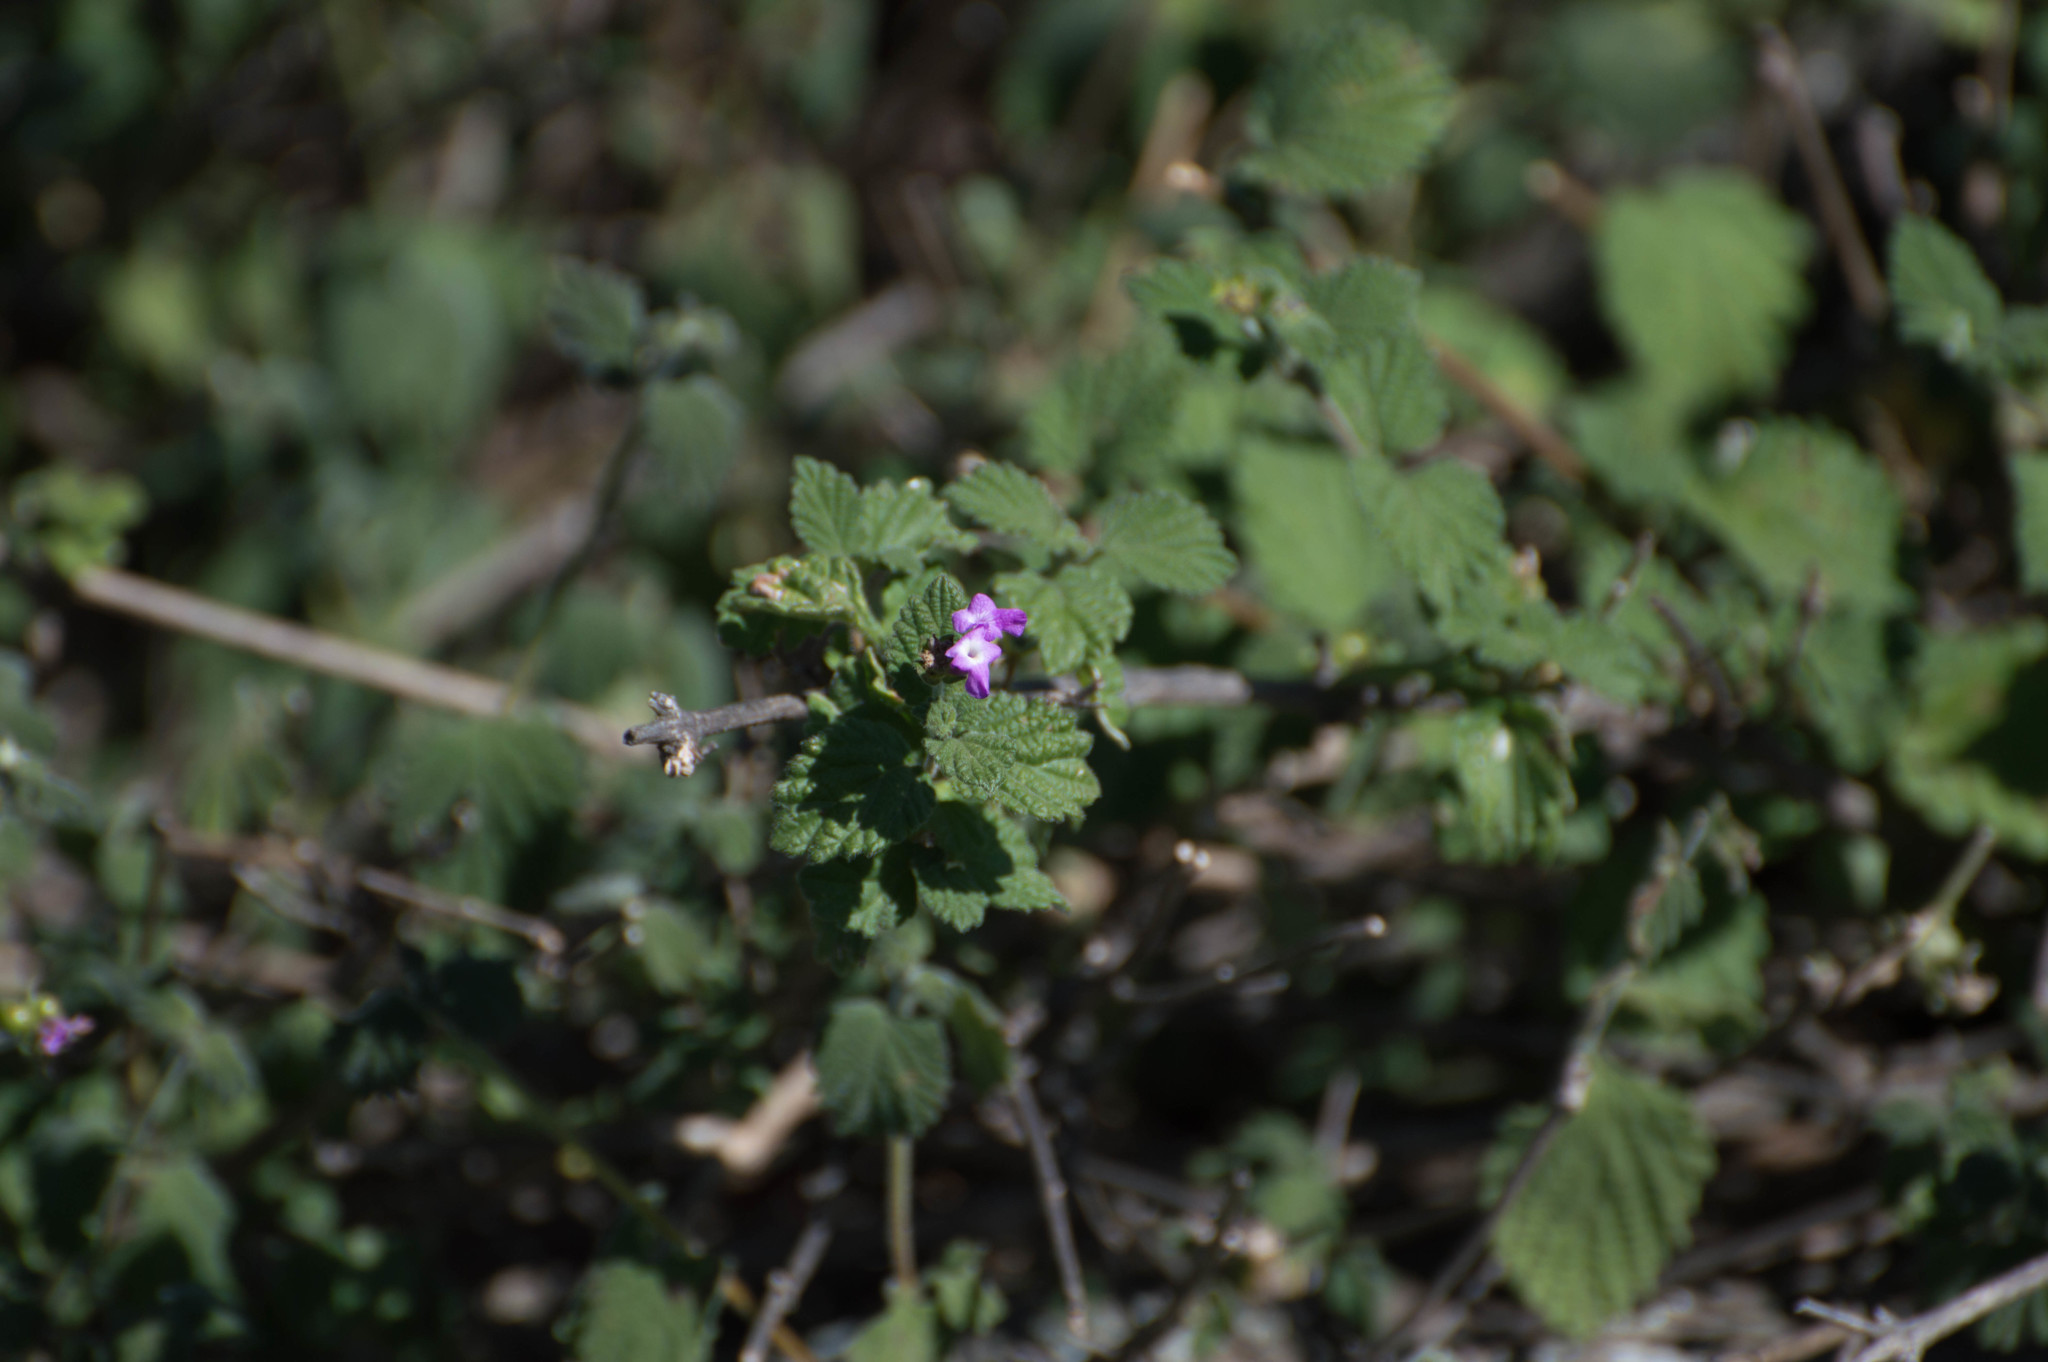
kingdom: Plantae
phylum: Tracheophyta
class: Magnoliopsida
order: Lamiales
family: Verbenaceae
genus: Lantana
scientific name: Lantana megapotamica
